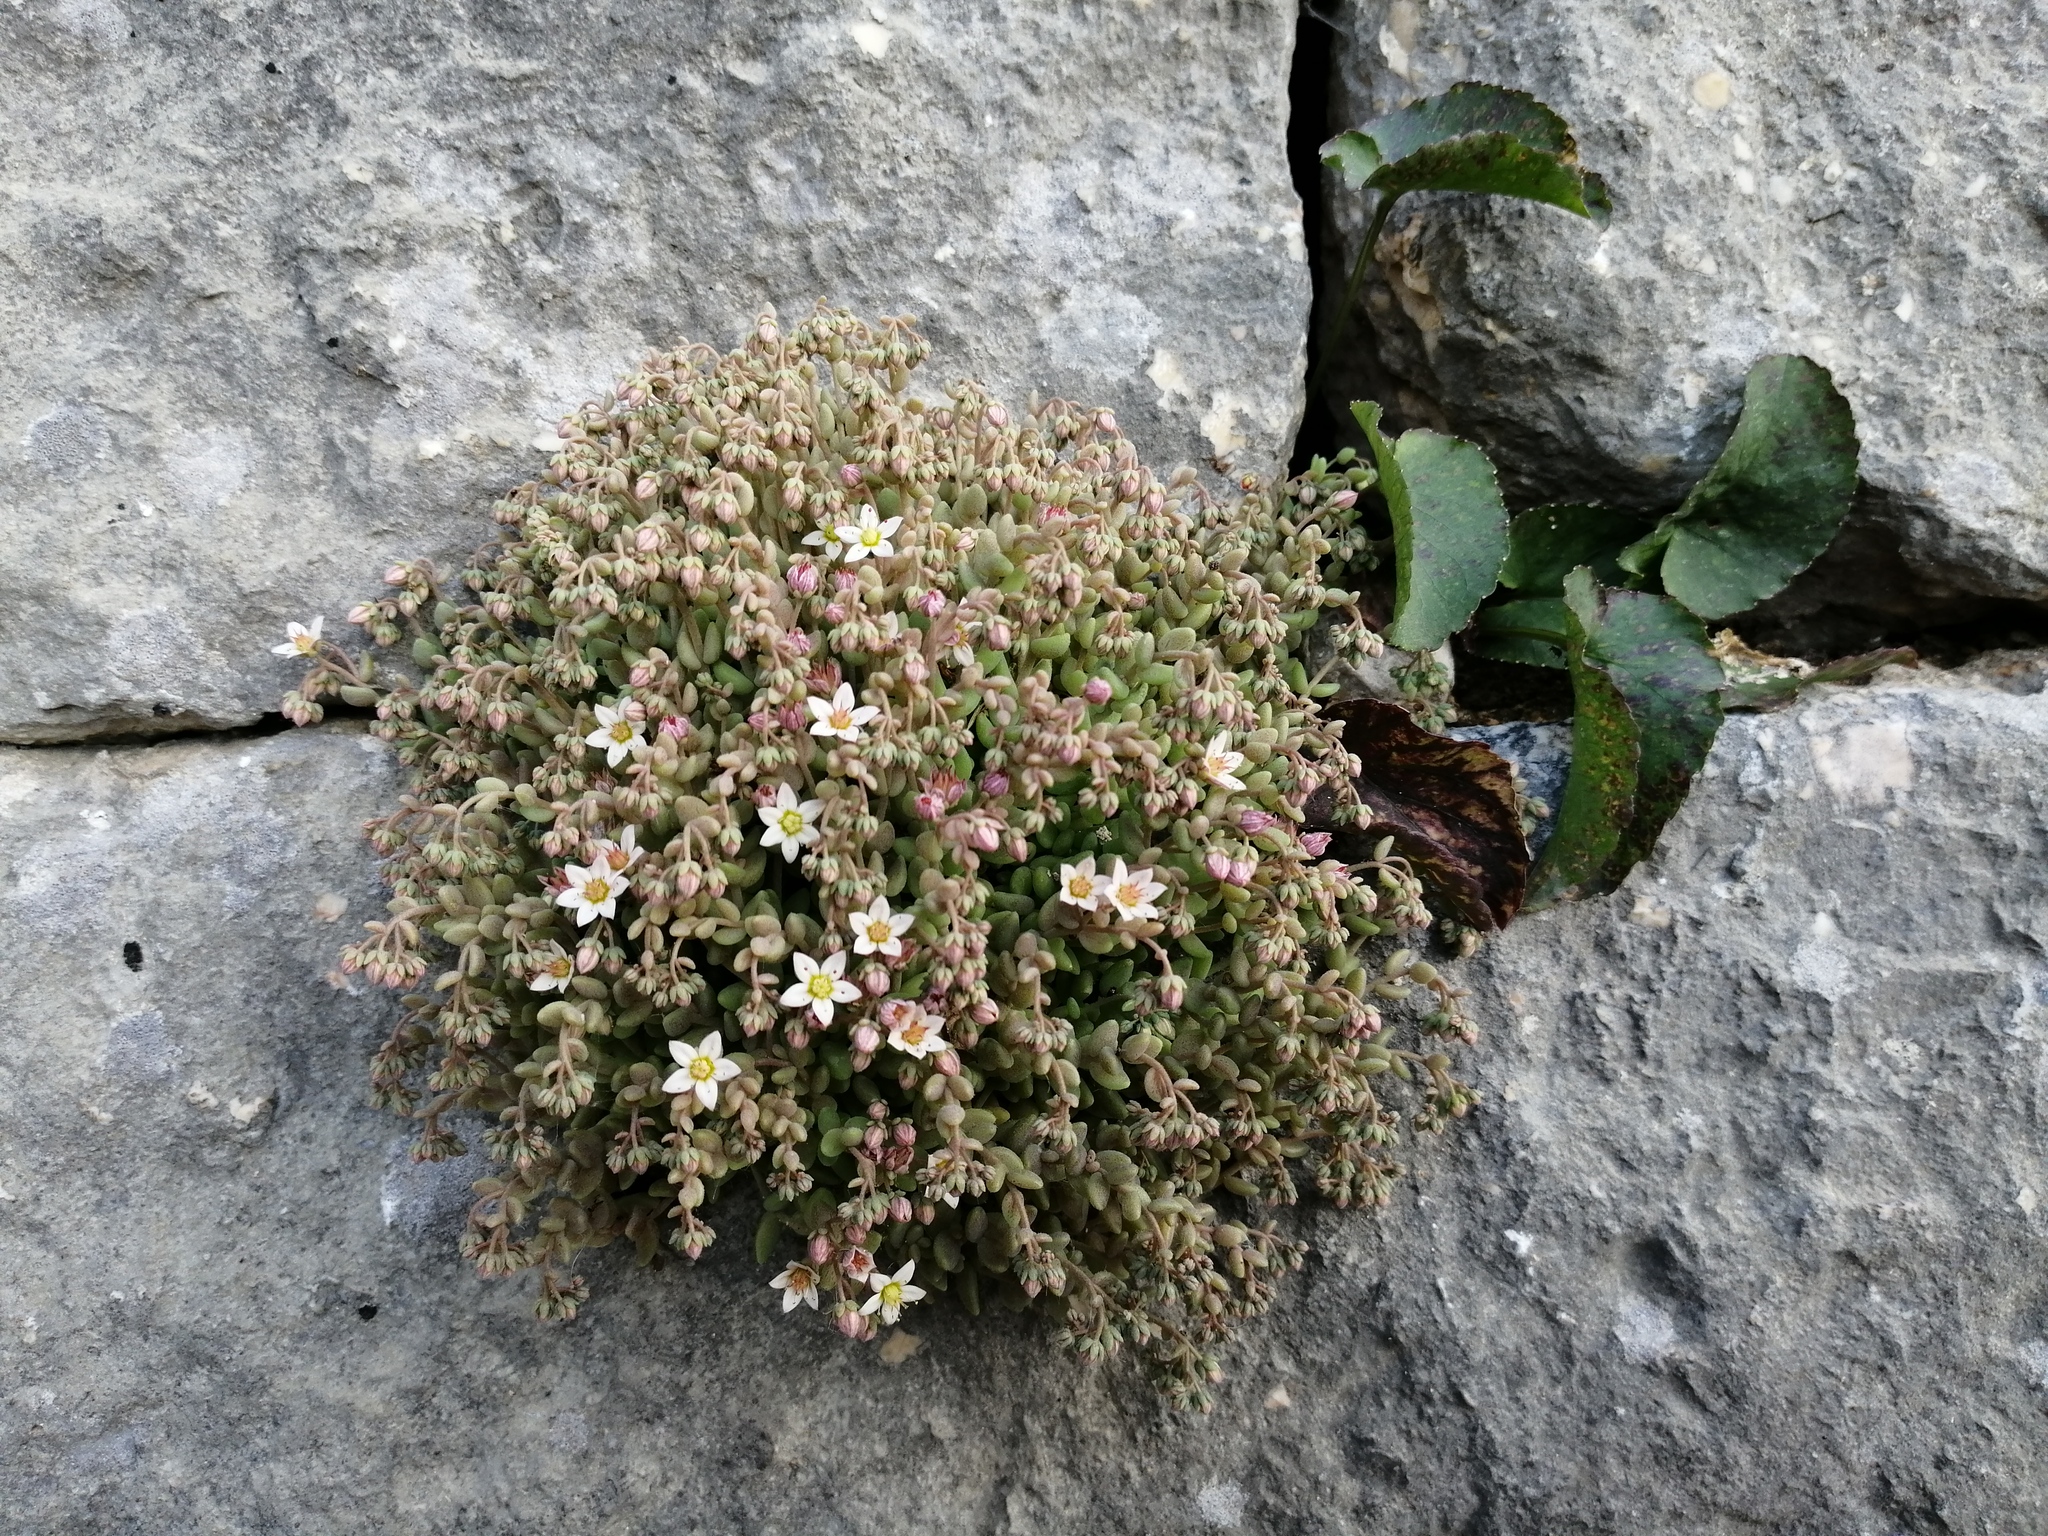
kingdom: Plantae
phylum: Tracheophyta
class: Magnoliopsida
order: Saxifragales
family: Crassulaceae
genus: Sedum
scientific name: Sedum dasyphyllum
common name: Thick-leaf stonecrop
